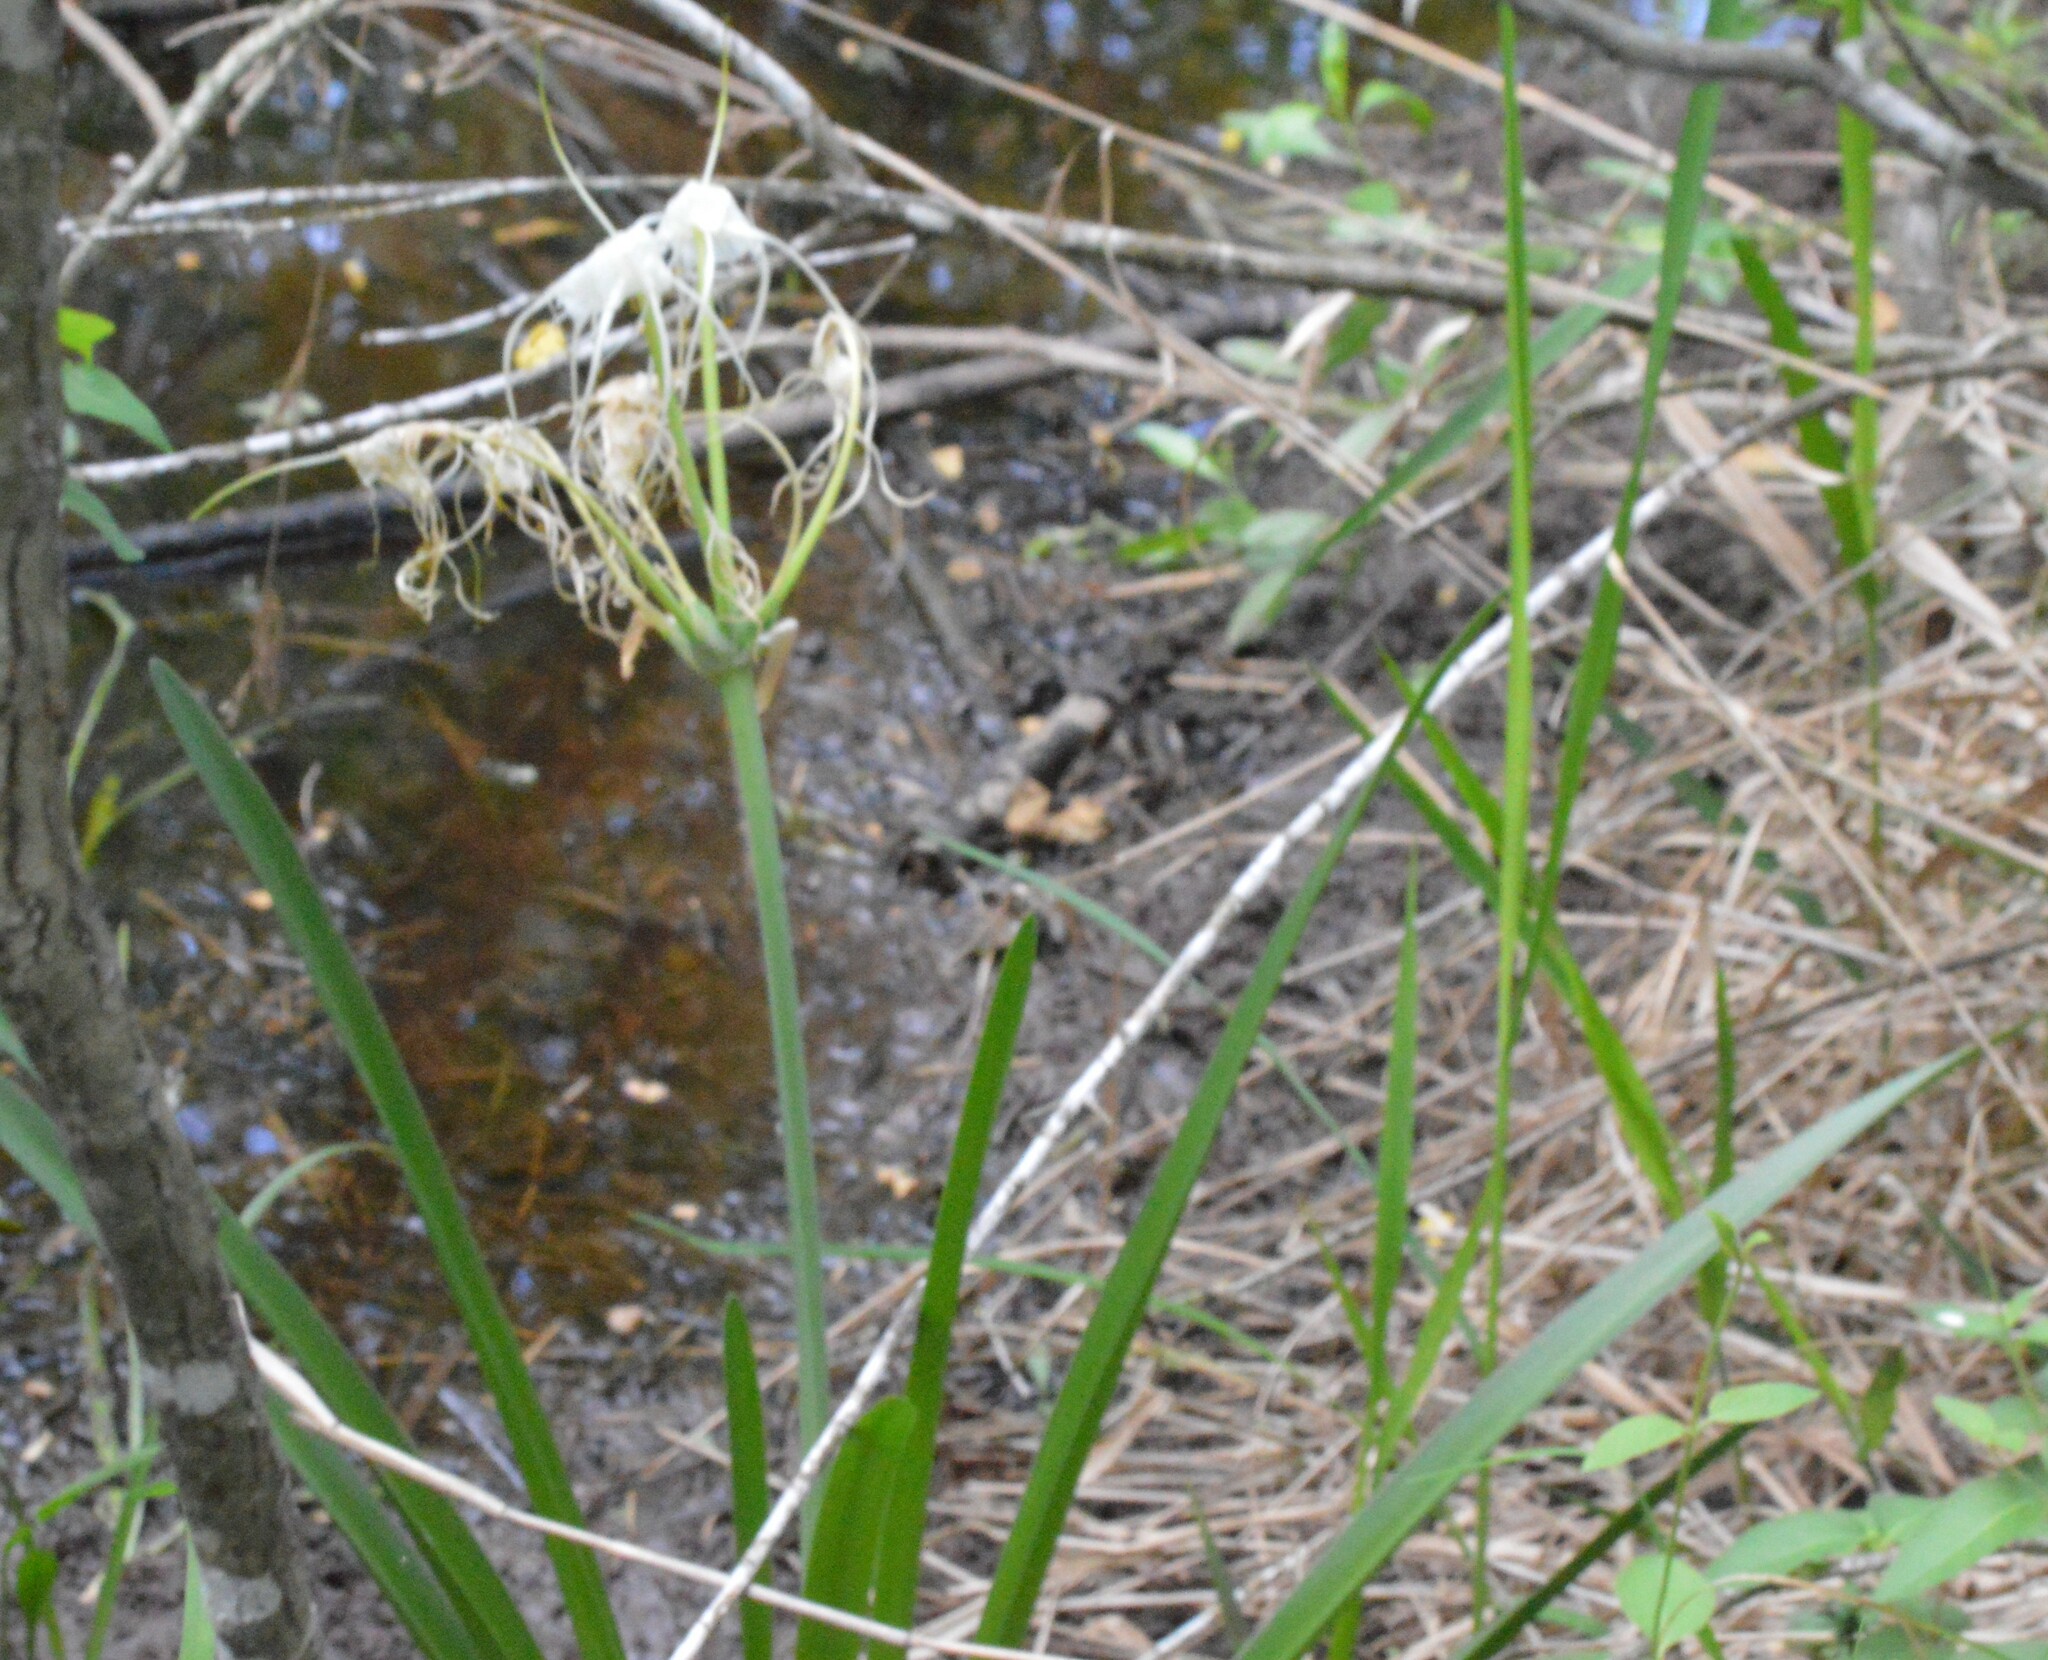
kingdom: Plantae
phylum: Tracheophyta
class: Liliopsida
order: Asparagales
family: Amaryllidaceae
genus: Hymenocallis
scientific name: Hymenocallis liriosme
